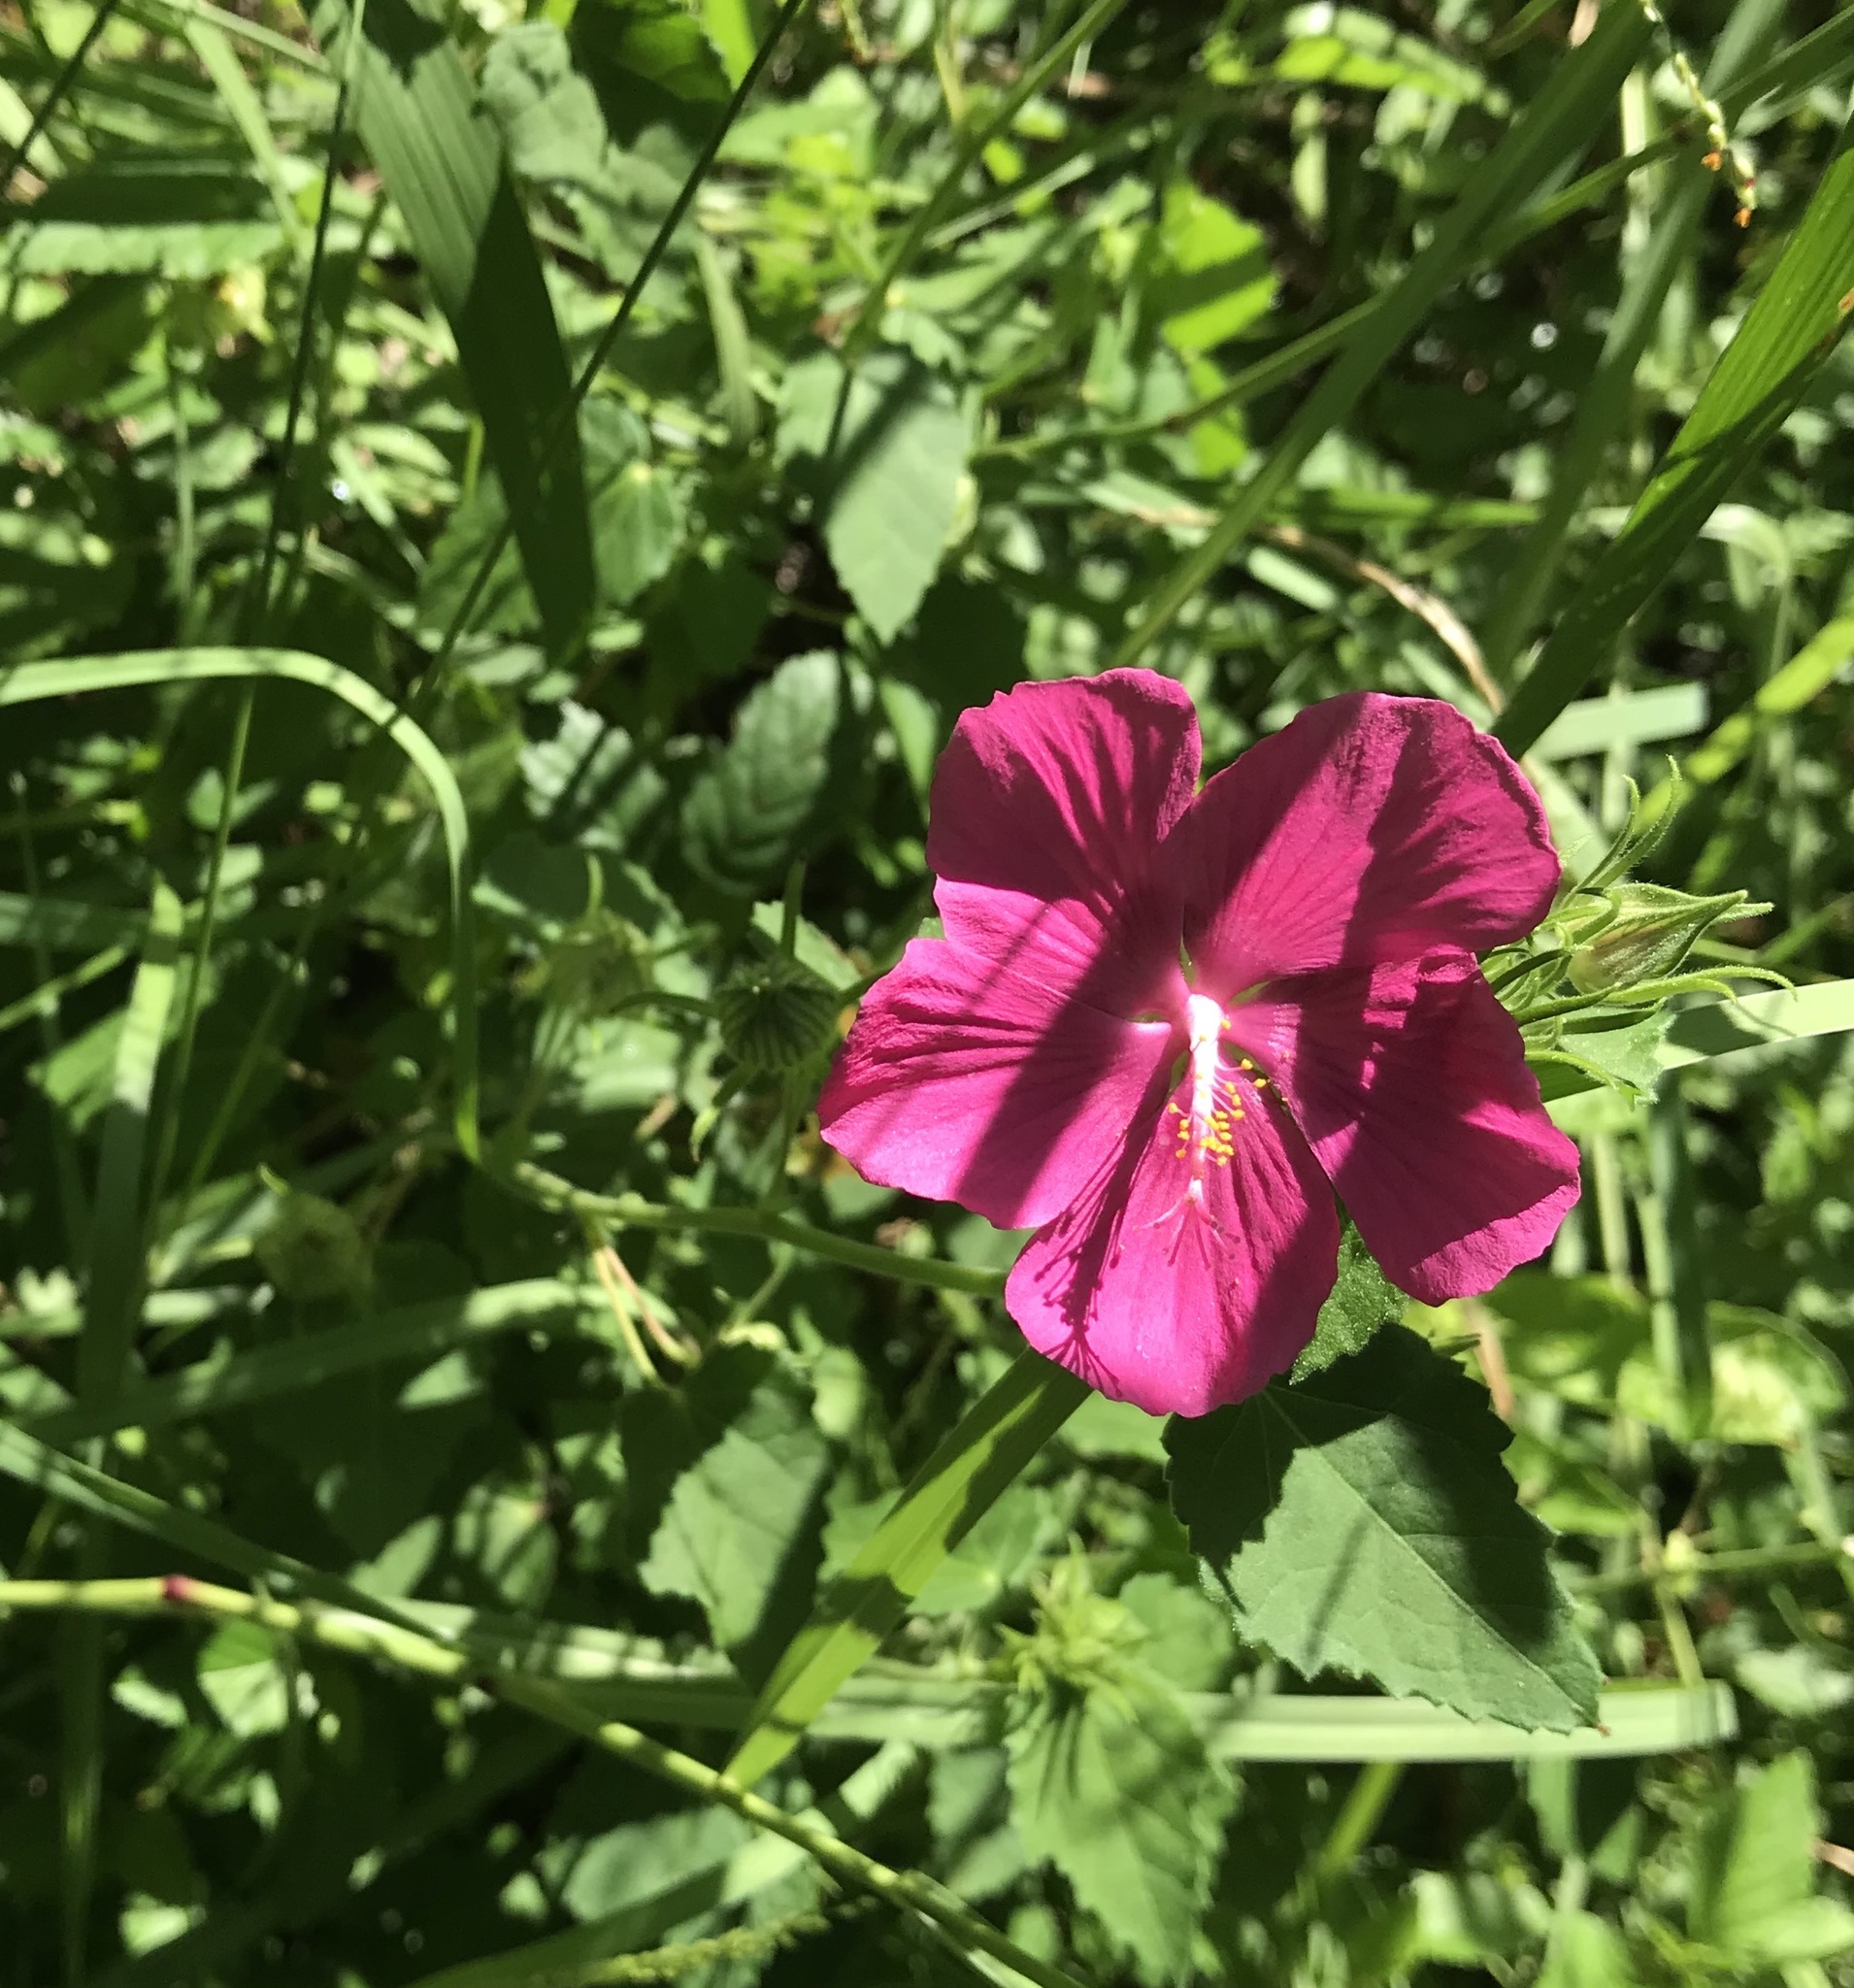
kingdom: Plantae
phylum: Tracheophyta
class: Magnoliopsida
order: Malvales
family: Malvaceae
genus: Pavonia
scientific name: Pavonia lasiopetala
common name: Texas swamp-mallow
